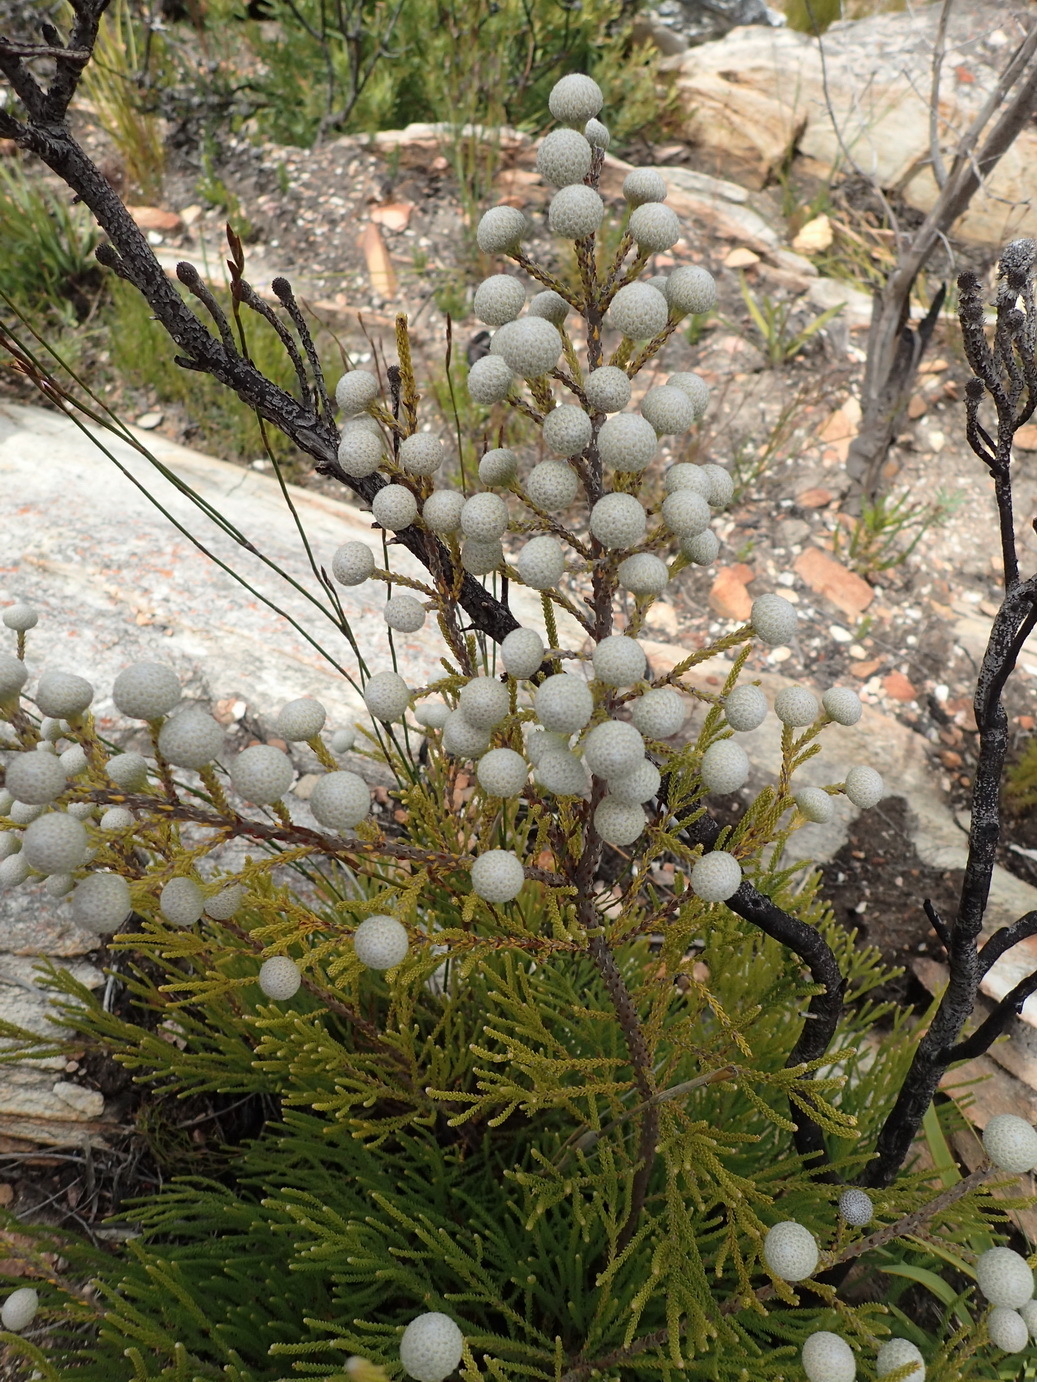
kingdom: Plantae
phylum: Tracheophyta
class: Magnoliopsida
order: Bruniales
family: Bruniaceae
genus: Brunia
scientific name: Brunia noduliflora
